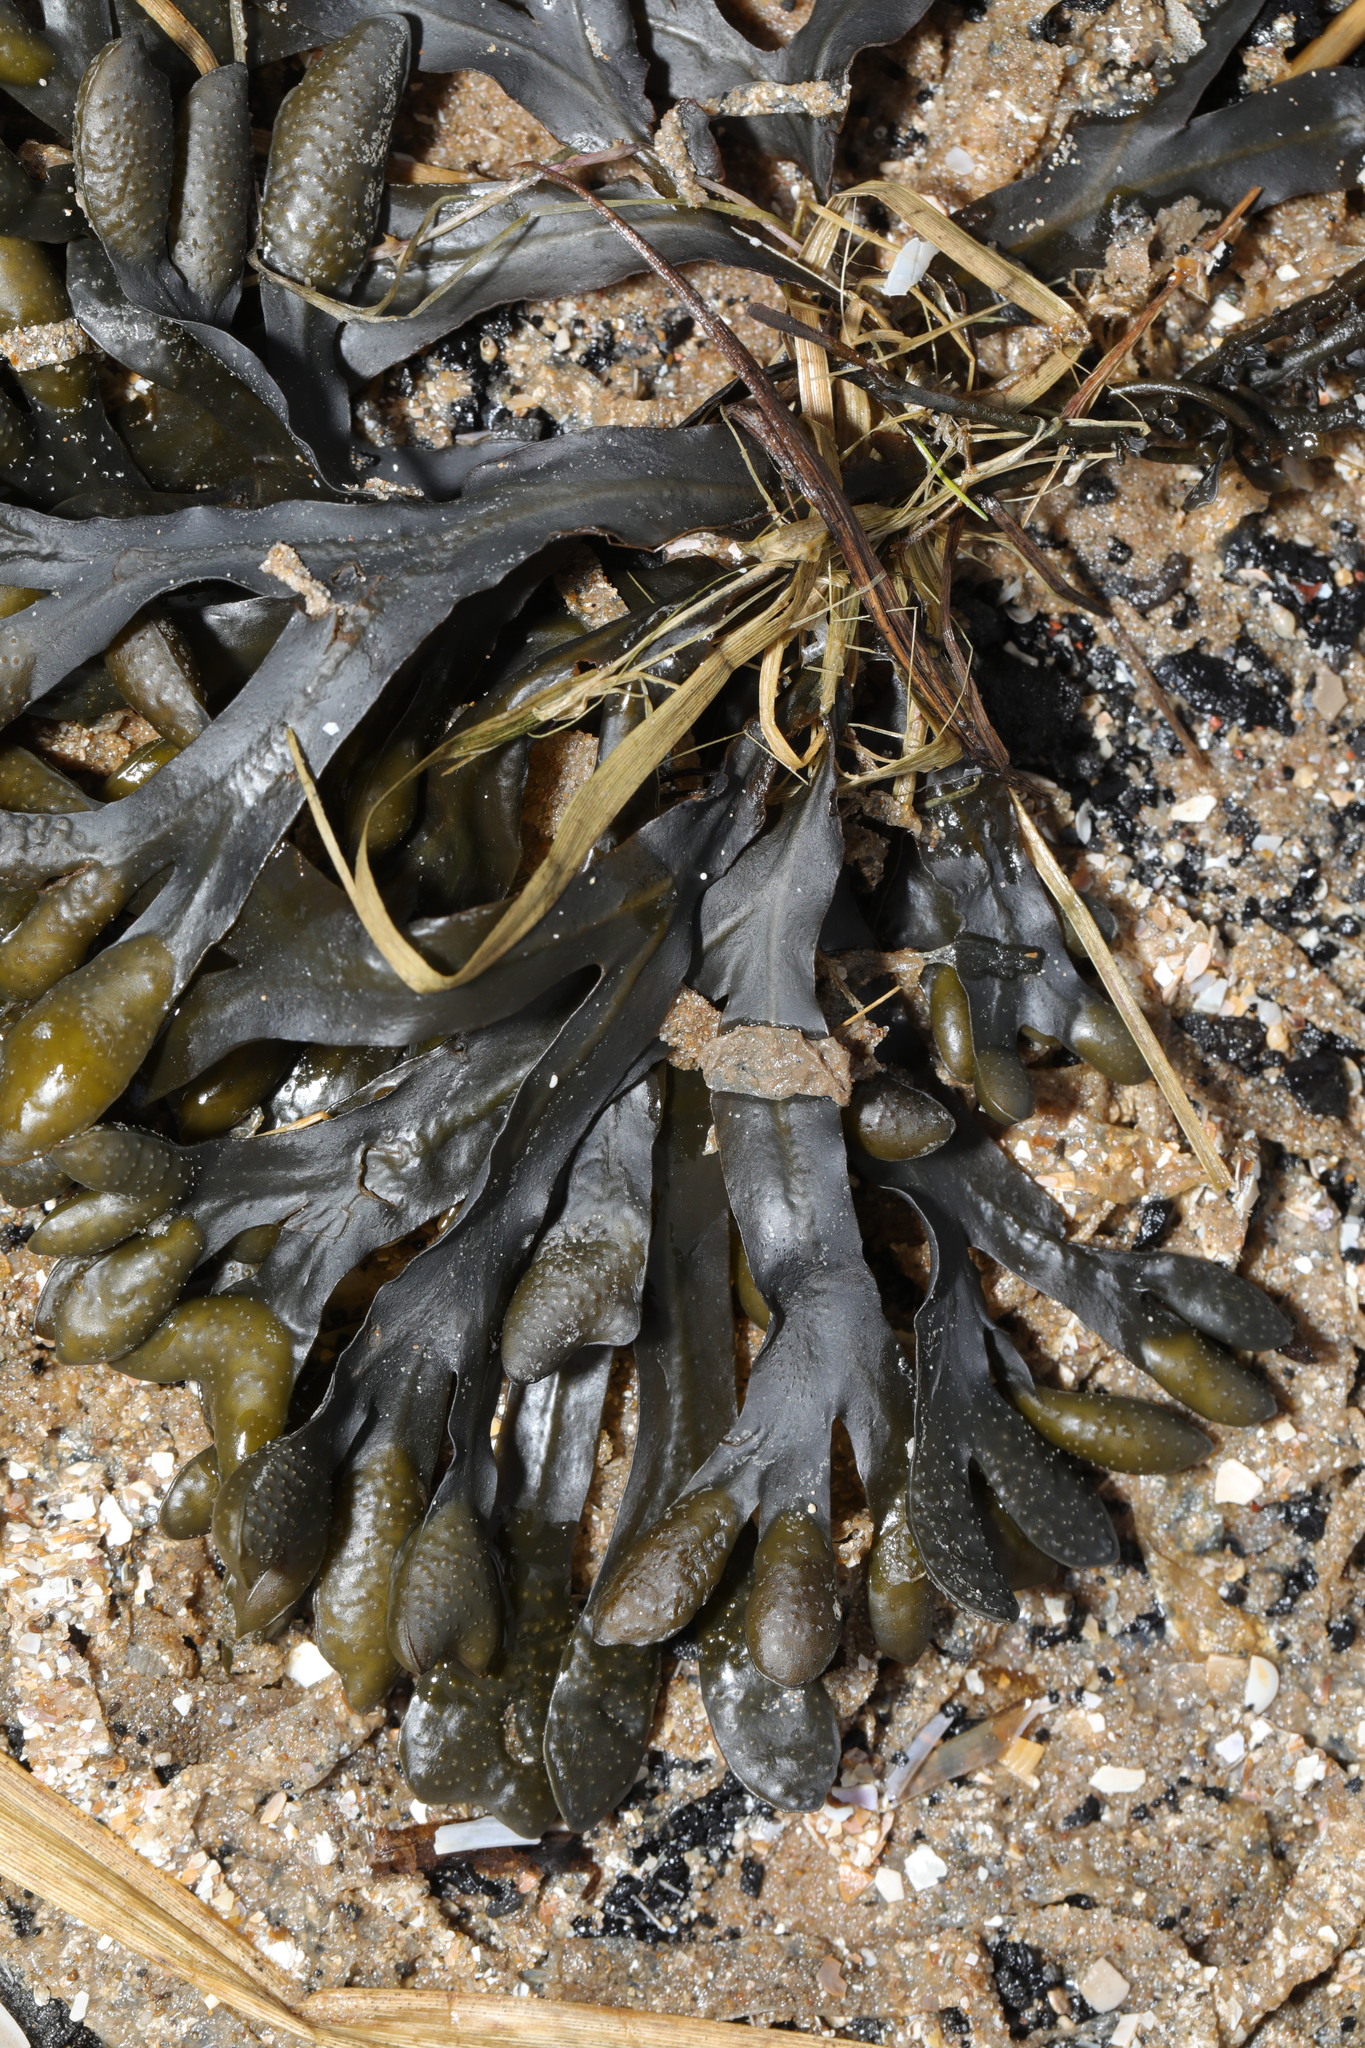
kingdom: Chromista
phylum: Ochrophyta
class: Phaeophyceae
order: Fucales
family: Fucaceae
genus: Fucus
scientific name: Fucus vesiculosus
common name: Bladder wrack
